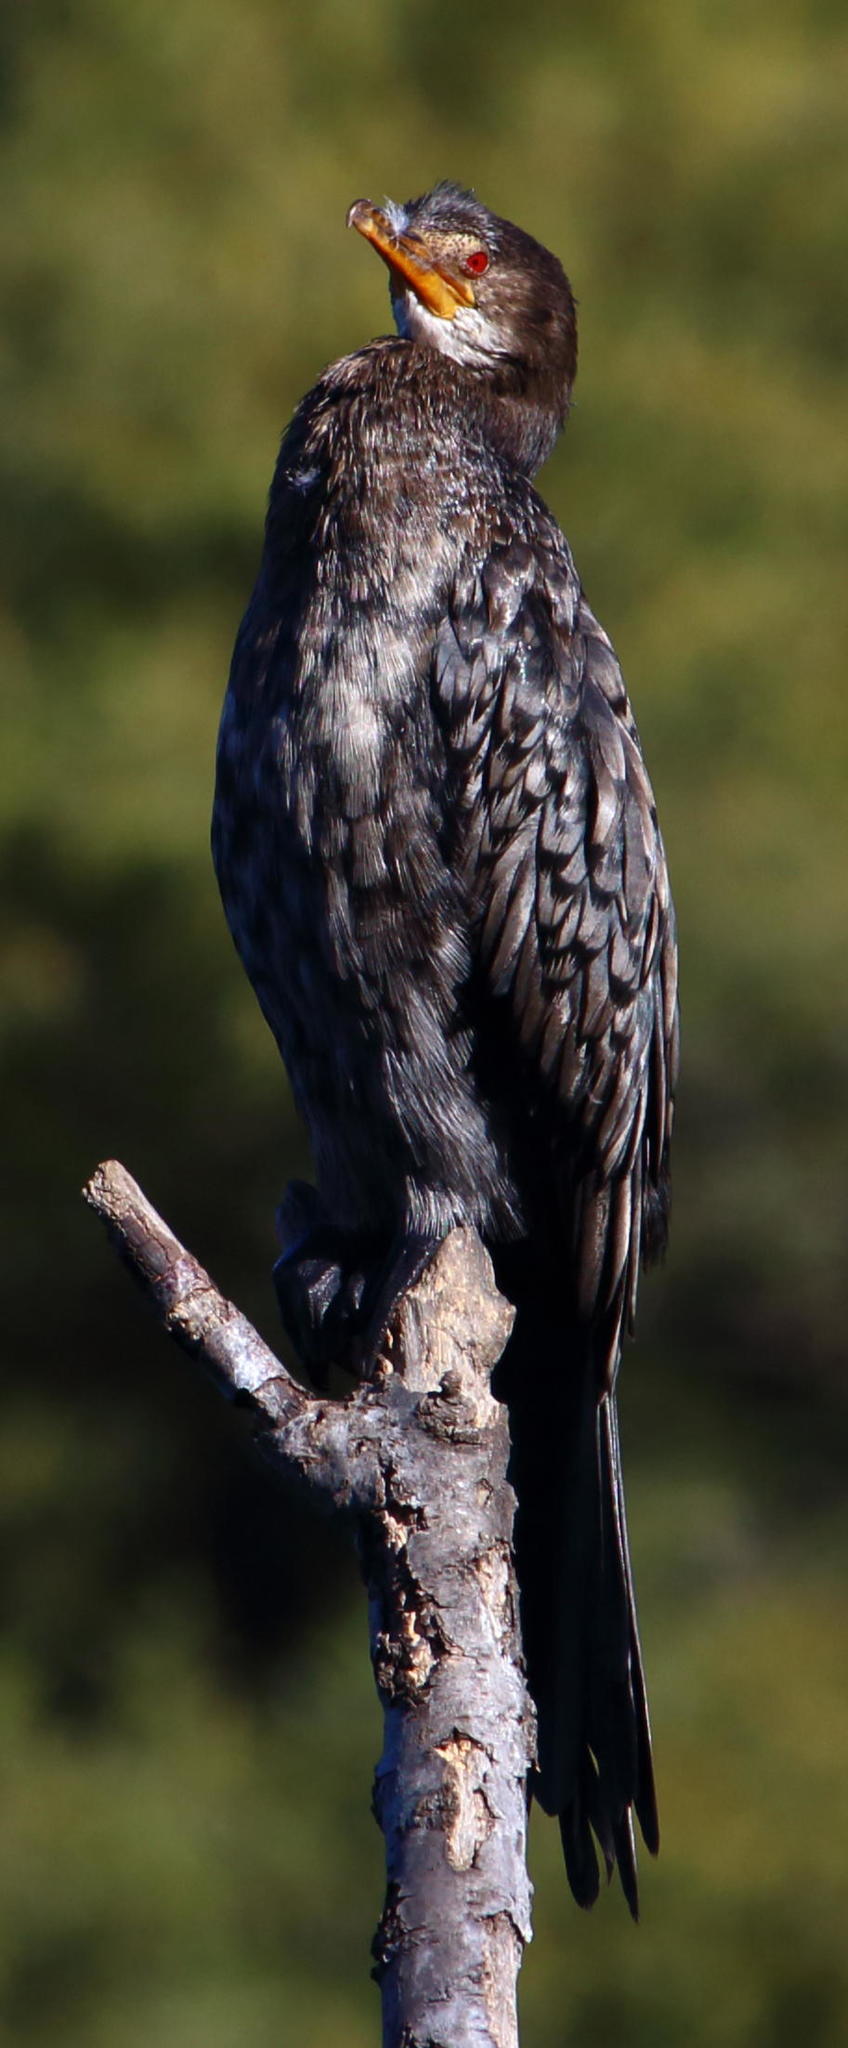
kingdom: Animalia
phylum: Chordata
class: Aves
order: Suliformes
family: Phalacrocoracidae
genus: Microcarbo
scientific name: Microcarbo africanus
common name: Long-tailed cormorant
